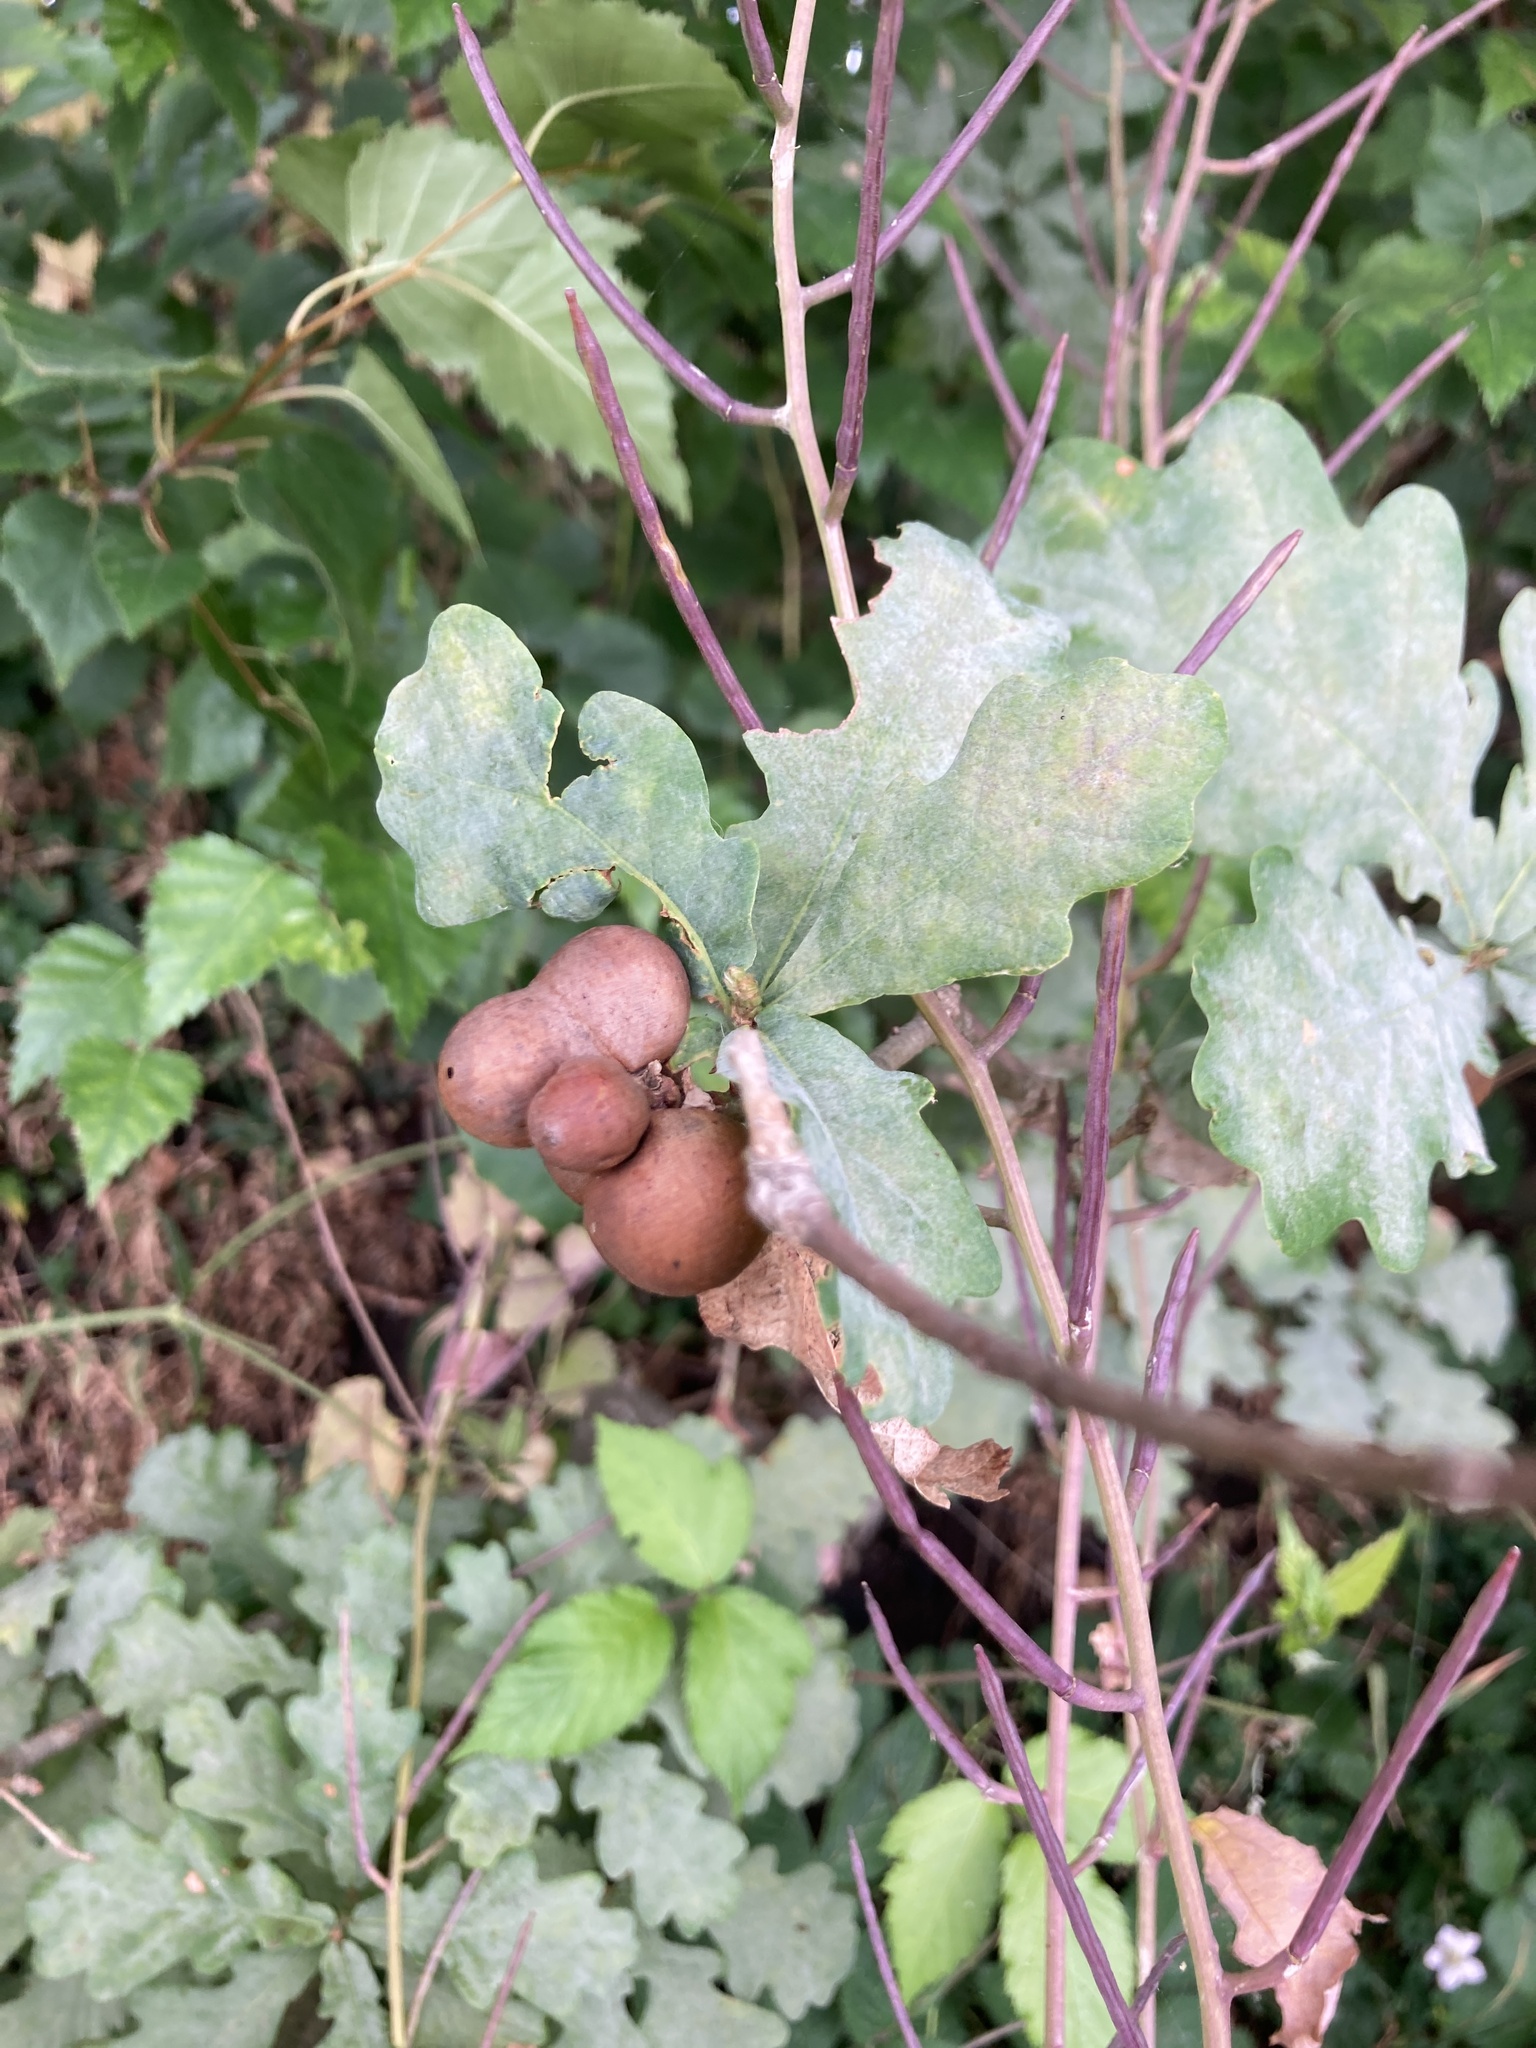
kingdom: Animalia
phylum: Arthropoda
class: Insecta
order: Hymenoptera
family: Cynipidae
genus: Andricus
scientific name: Andricus kollari
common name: Marble gall
